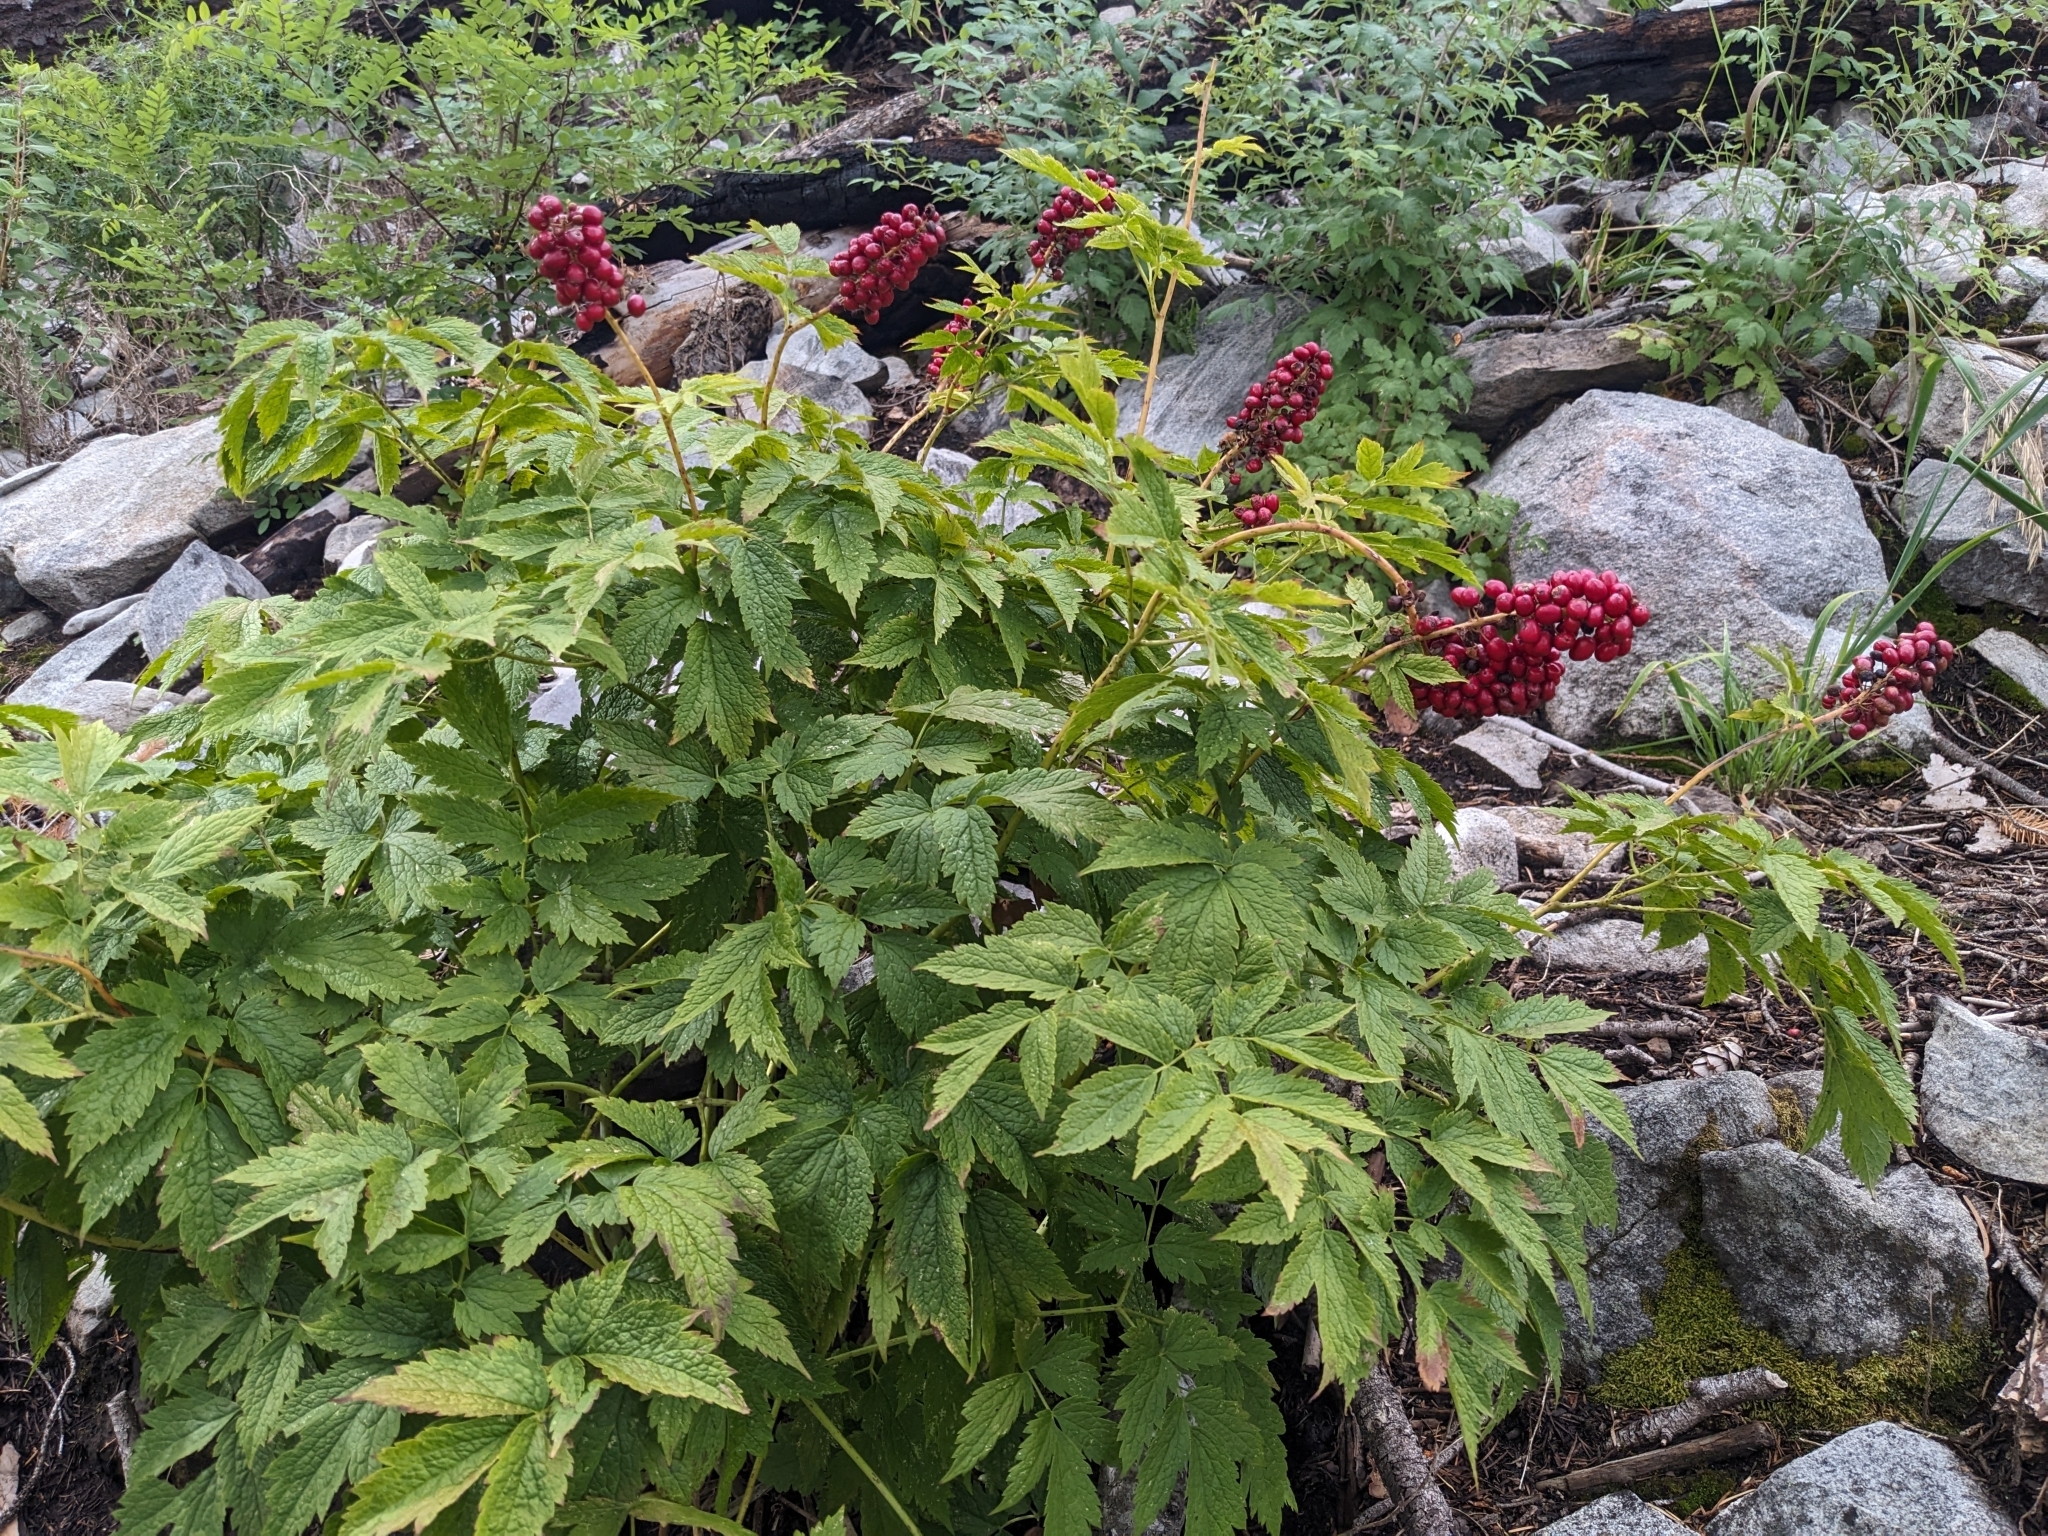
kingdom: Plantae
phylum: Tracheophyta
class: Magnoliopsida
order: Ranunculales
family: Ranunculaceae
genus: Actaea
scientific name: Actaea rubra
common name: Red baneberry
